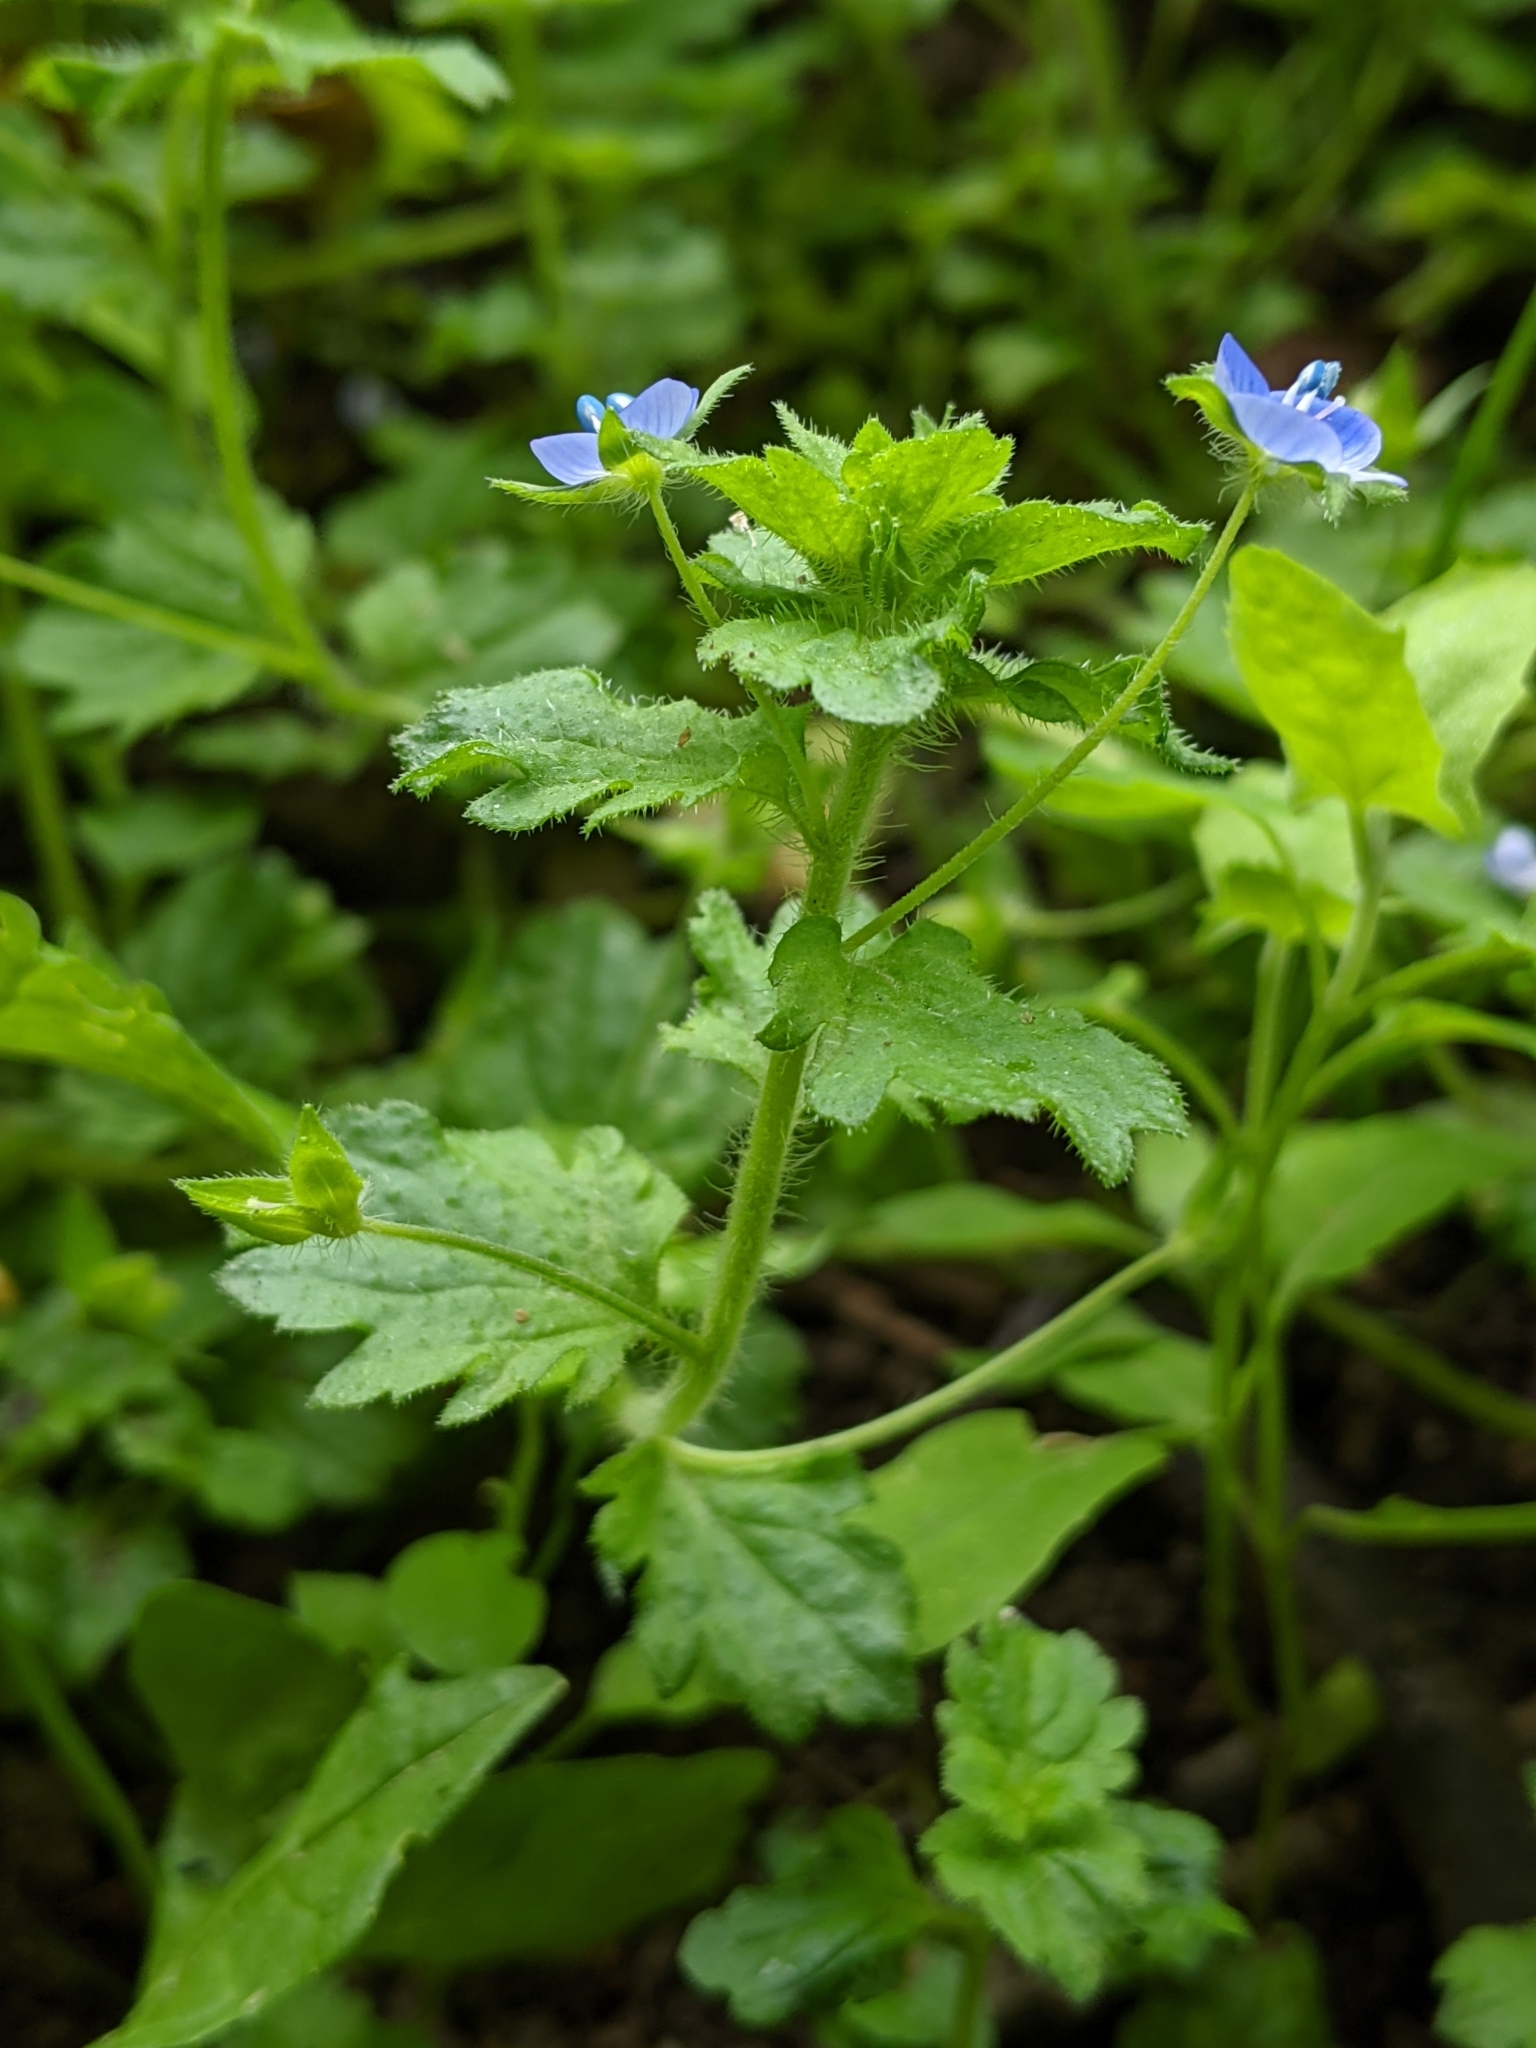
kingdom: Plantae
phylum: Tracheophyta
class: Magnoliopsida
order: Lamiales
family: Plantaginaceae
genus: Veronica
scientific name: Veronica persica
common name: Common field-speedwell
